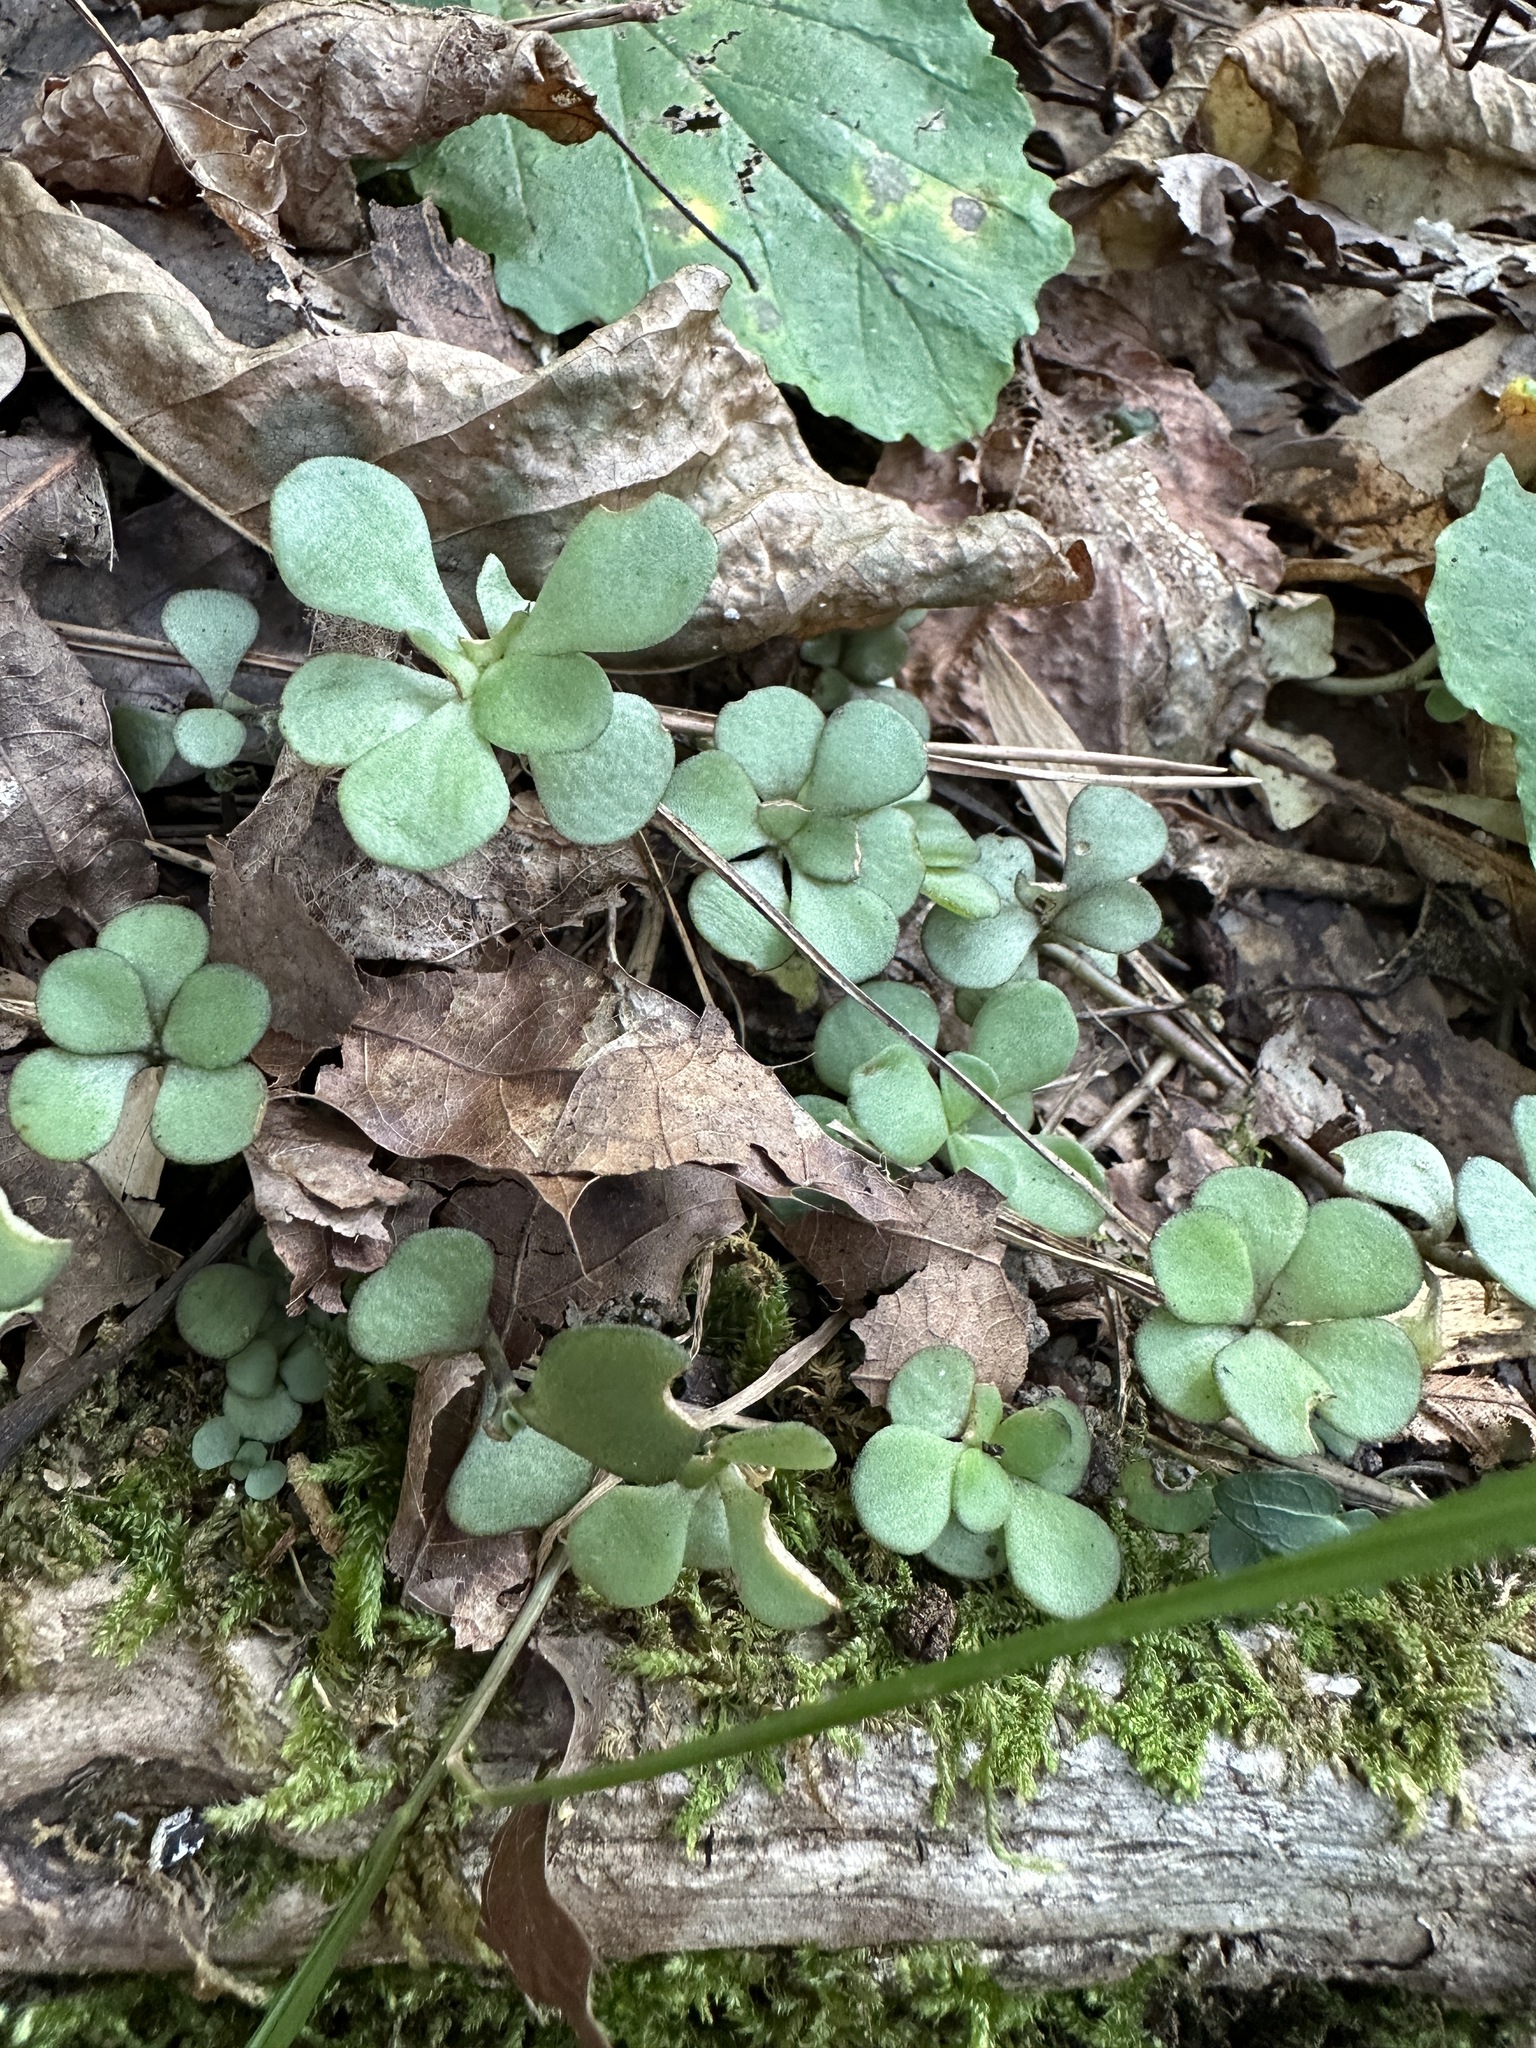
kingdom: Plantae
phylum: Tracheophyta
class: Magnoliopsida
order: Saxifragales
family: Crassulaceae
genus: Sedum
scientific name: Sedum ternatum
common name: Wild stonecrop
